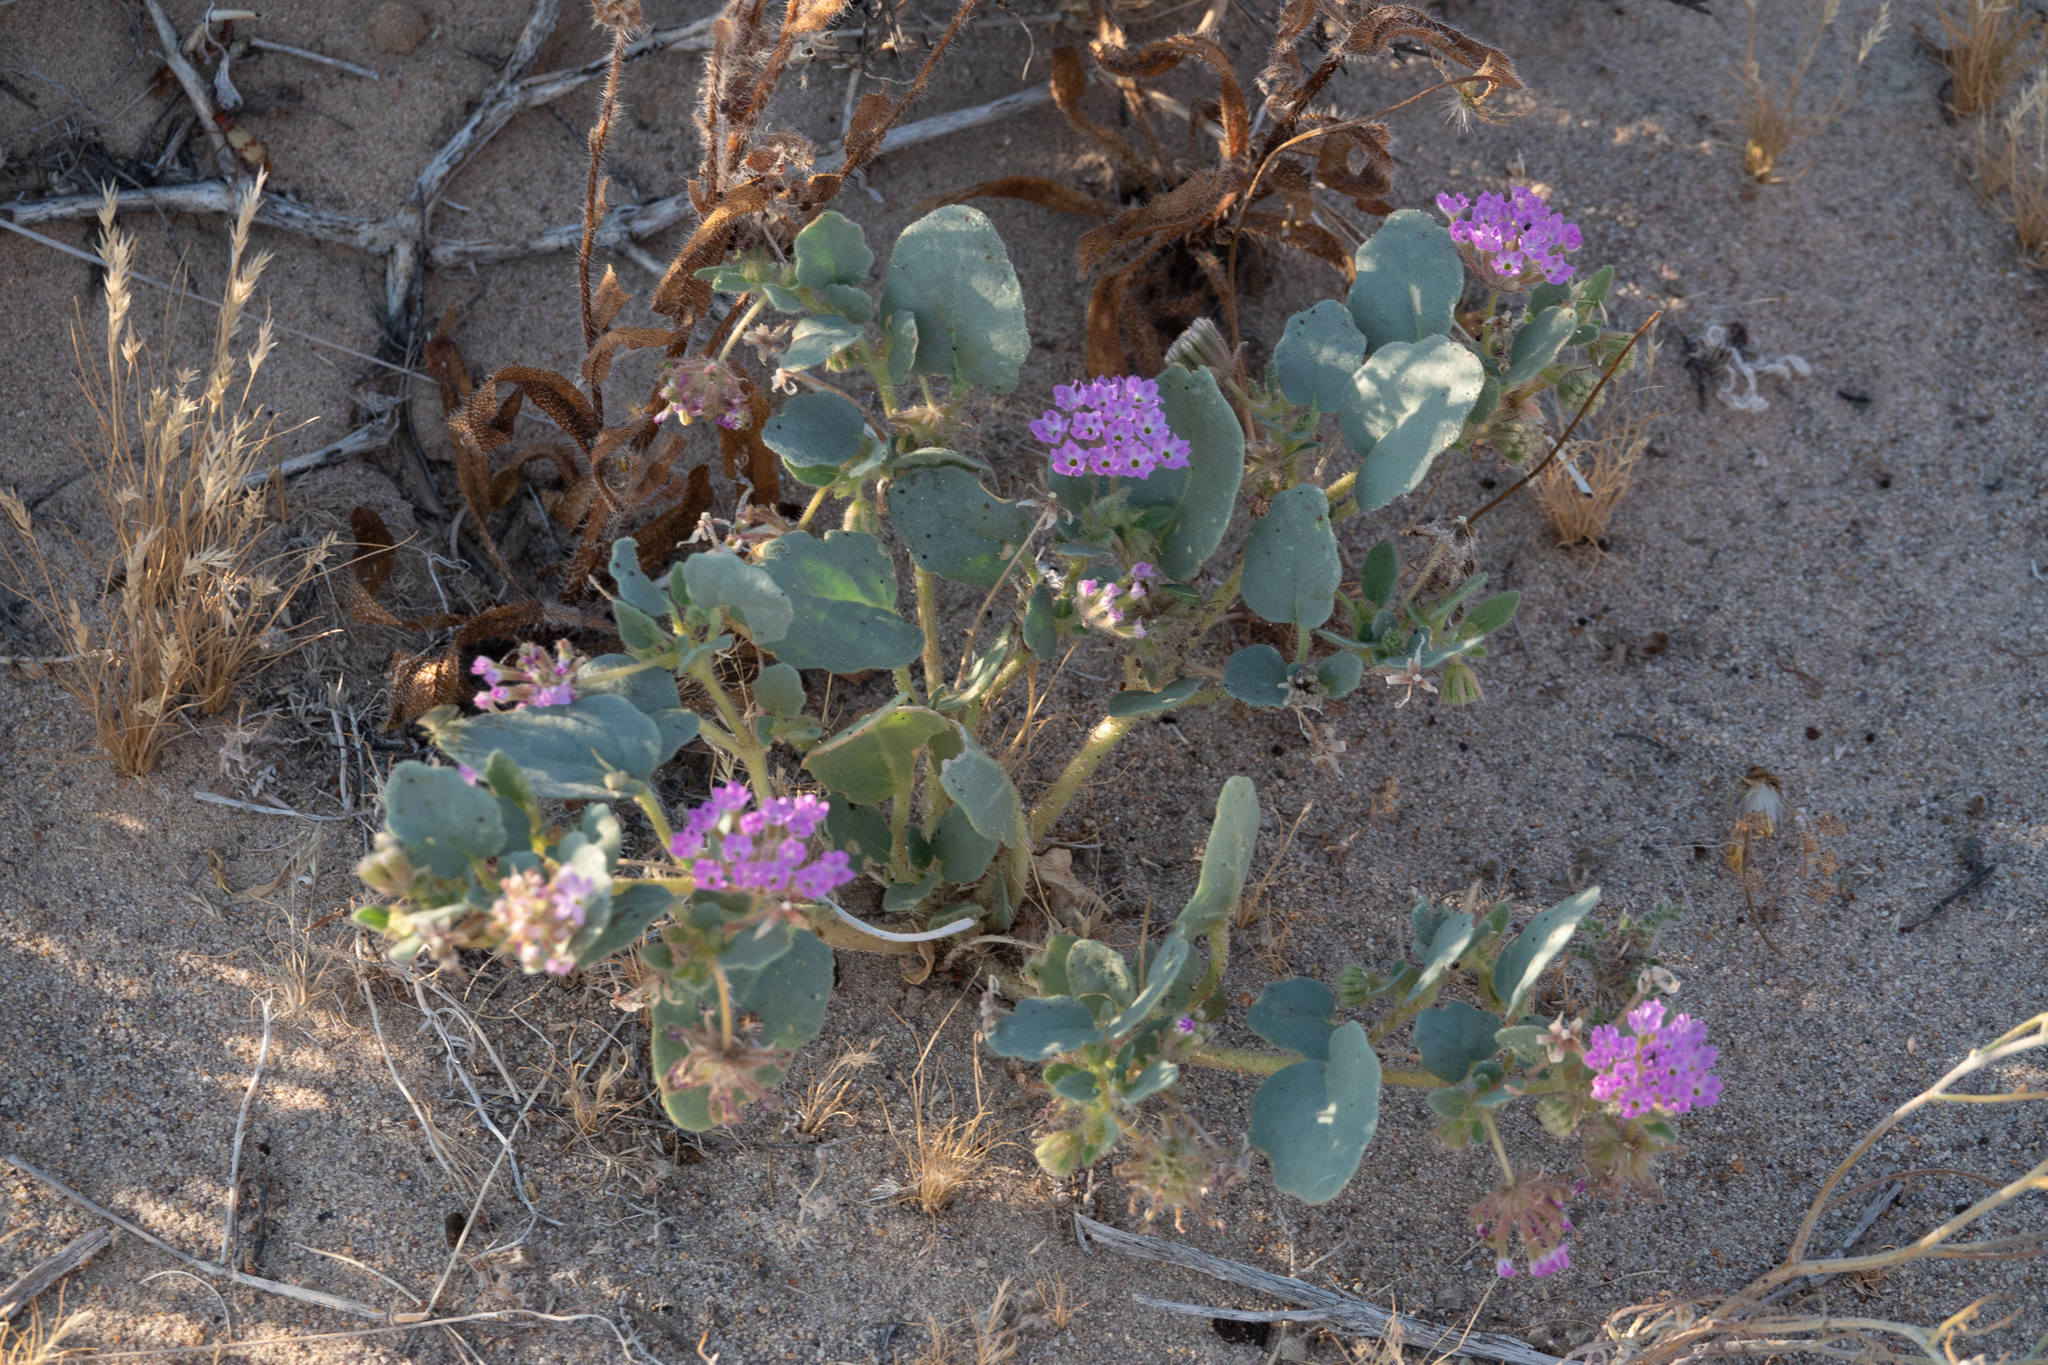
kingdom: Plantae
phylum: Tracheophyta
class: Magnoliopsida
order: Caryophyllales
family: Nyctaginaceae
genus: Abronia
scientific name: Abronia villosa
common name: Desert sand-verbena
